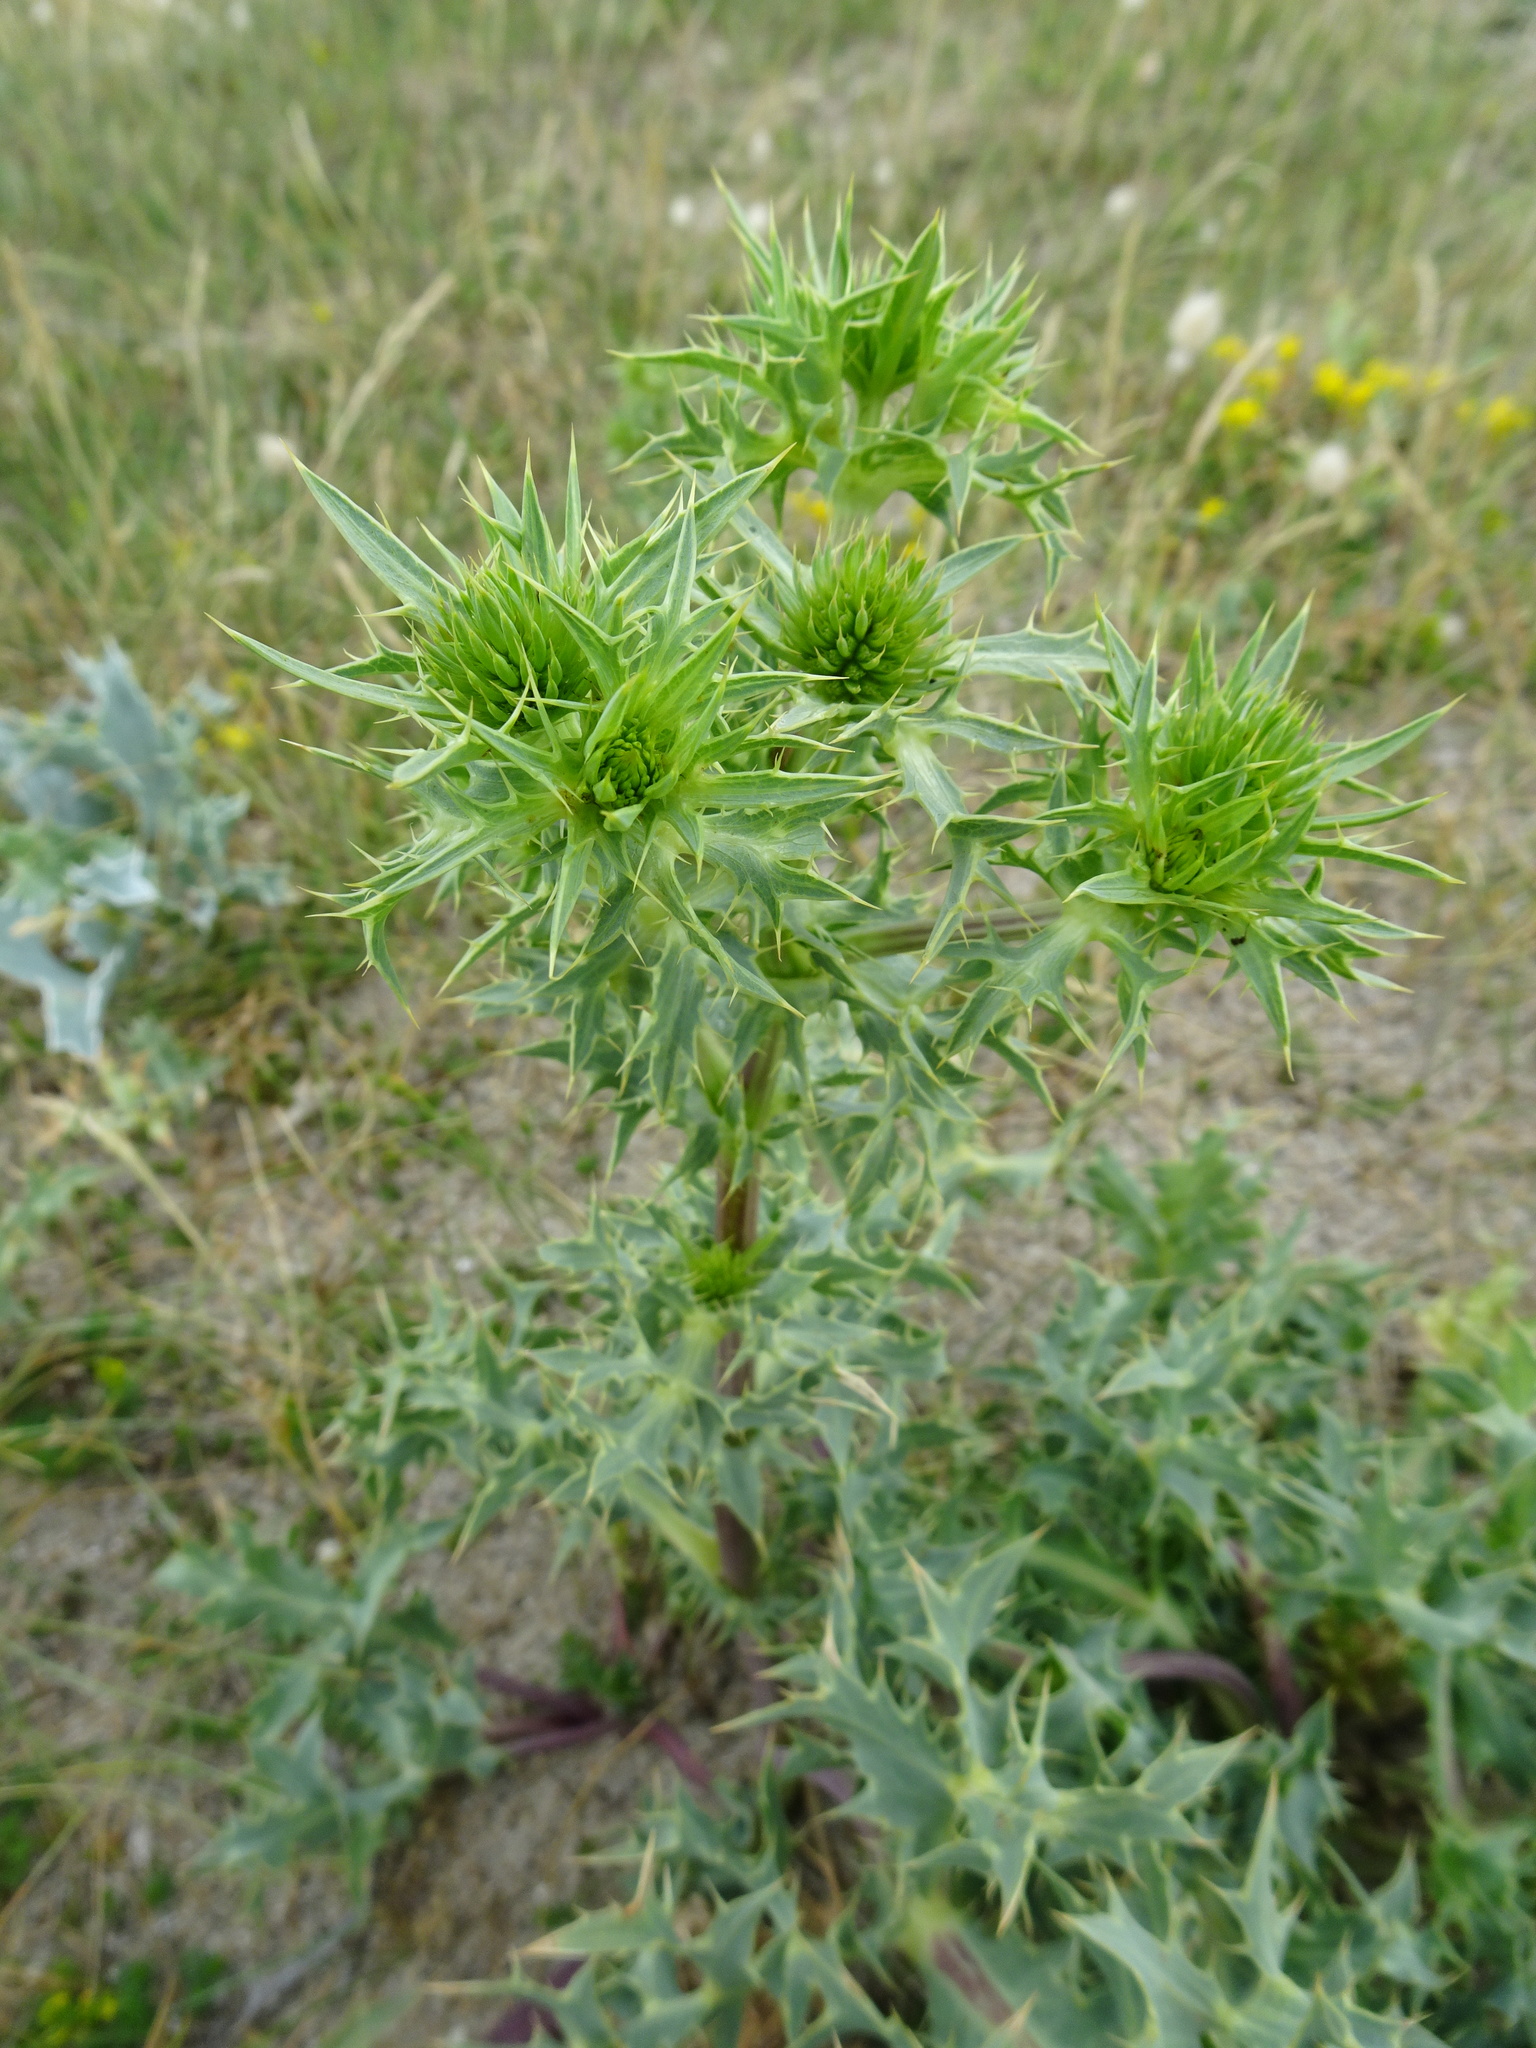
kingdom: Plantae
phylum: Tracheophyta
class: Magnoliopsida
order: Apiales
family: Apiaceae
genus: Eryngium
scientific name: Eryngium campestre
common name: Field eryngo
